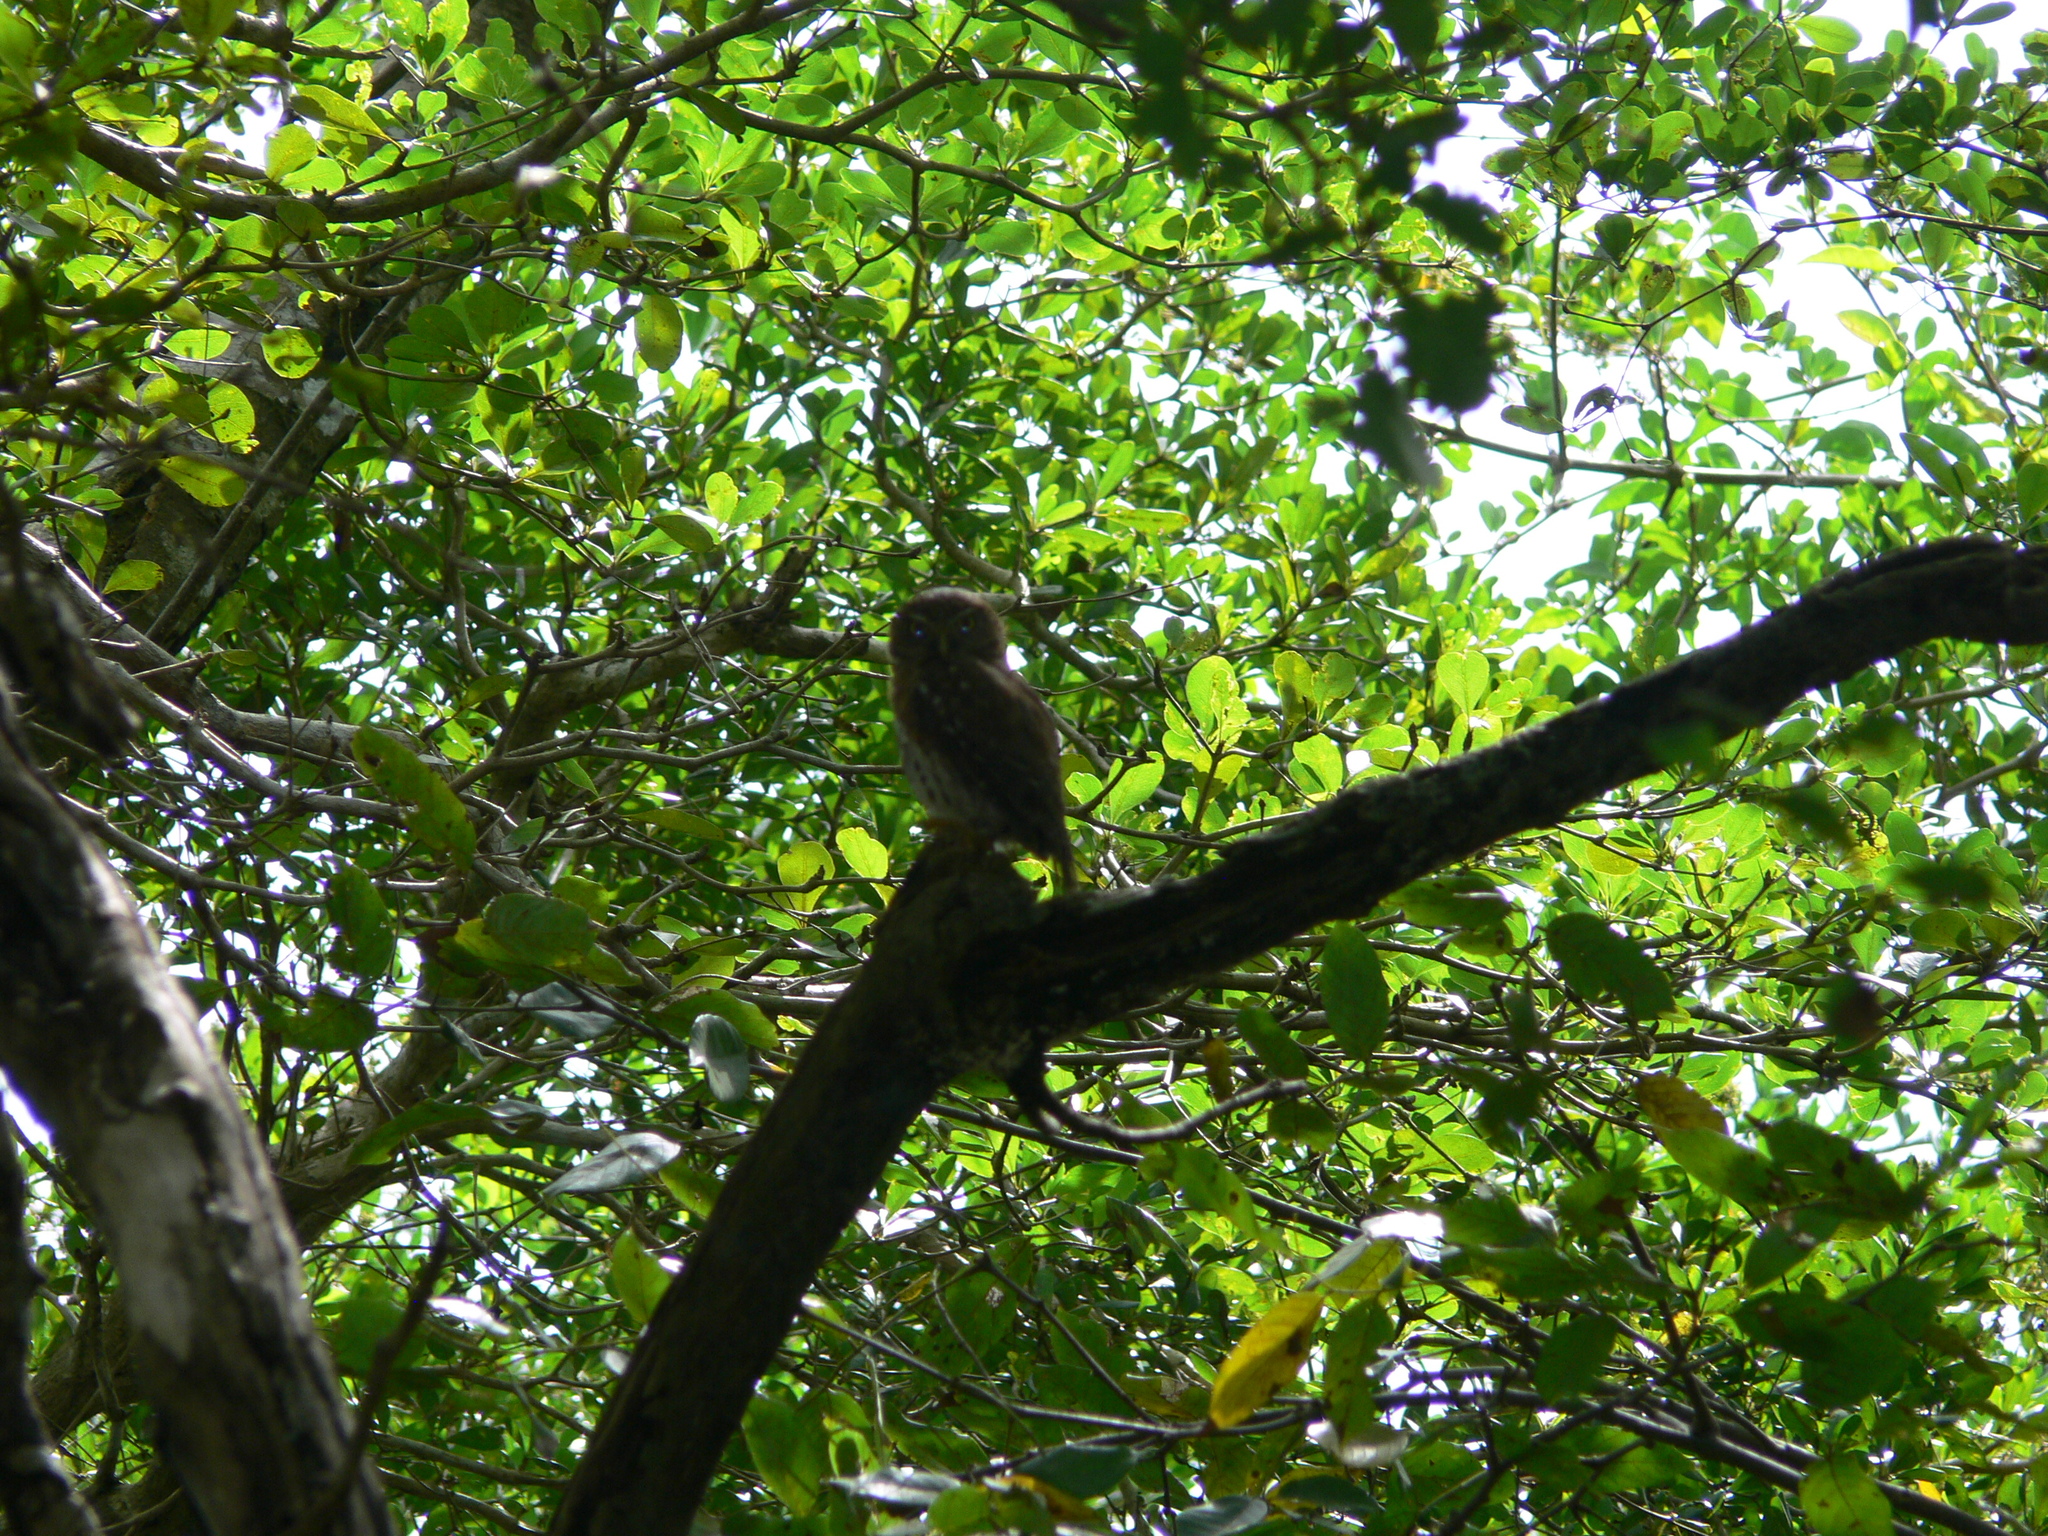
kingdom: Animalia
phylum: Chordata
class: Aves
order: Strigiformes
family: Strigidae
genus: Glaucidium
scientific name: Glaucidium siju
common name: Cuban pygmy-owl
